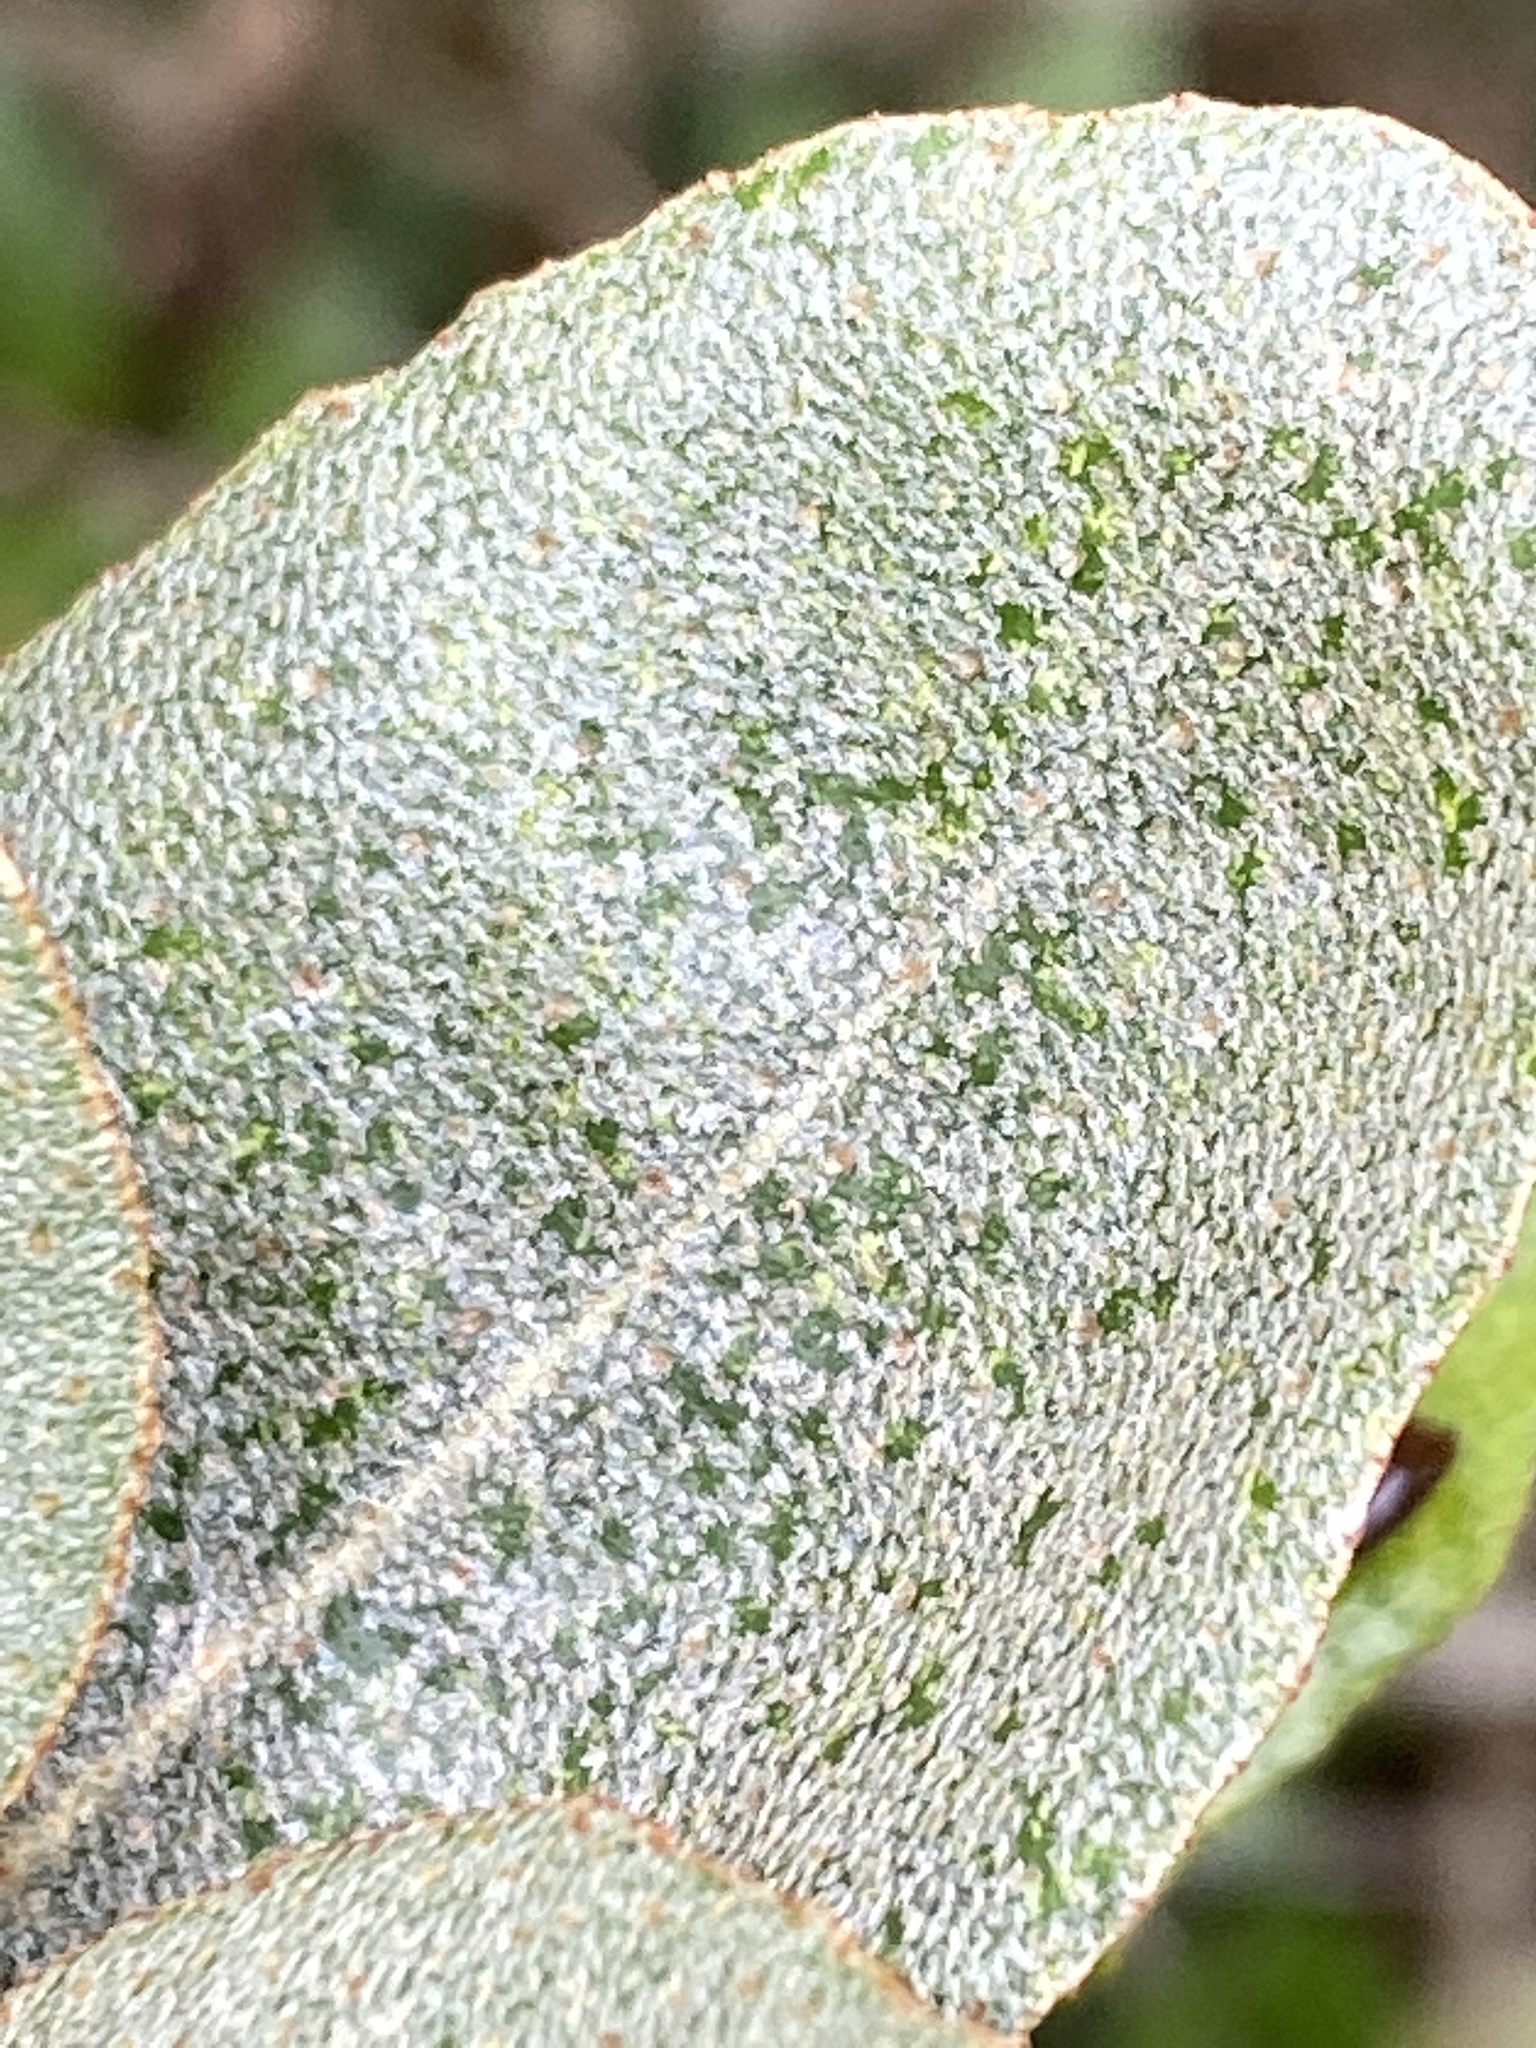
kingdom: Plantae
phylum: Tracheophyta
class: Magnoliopsida
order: Rosales
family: Elaeagnaceae
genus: Elaeagnus
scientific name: Elaeagnus pungens
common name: Spiny oleaster
